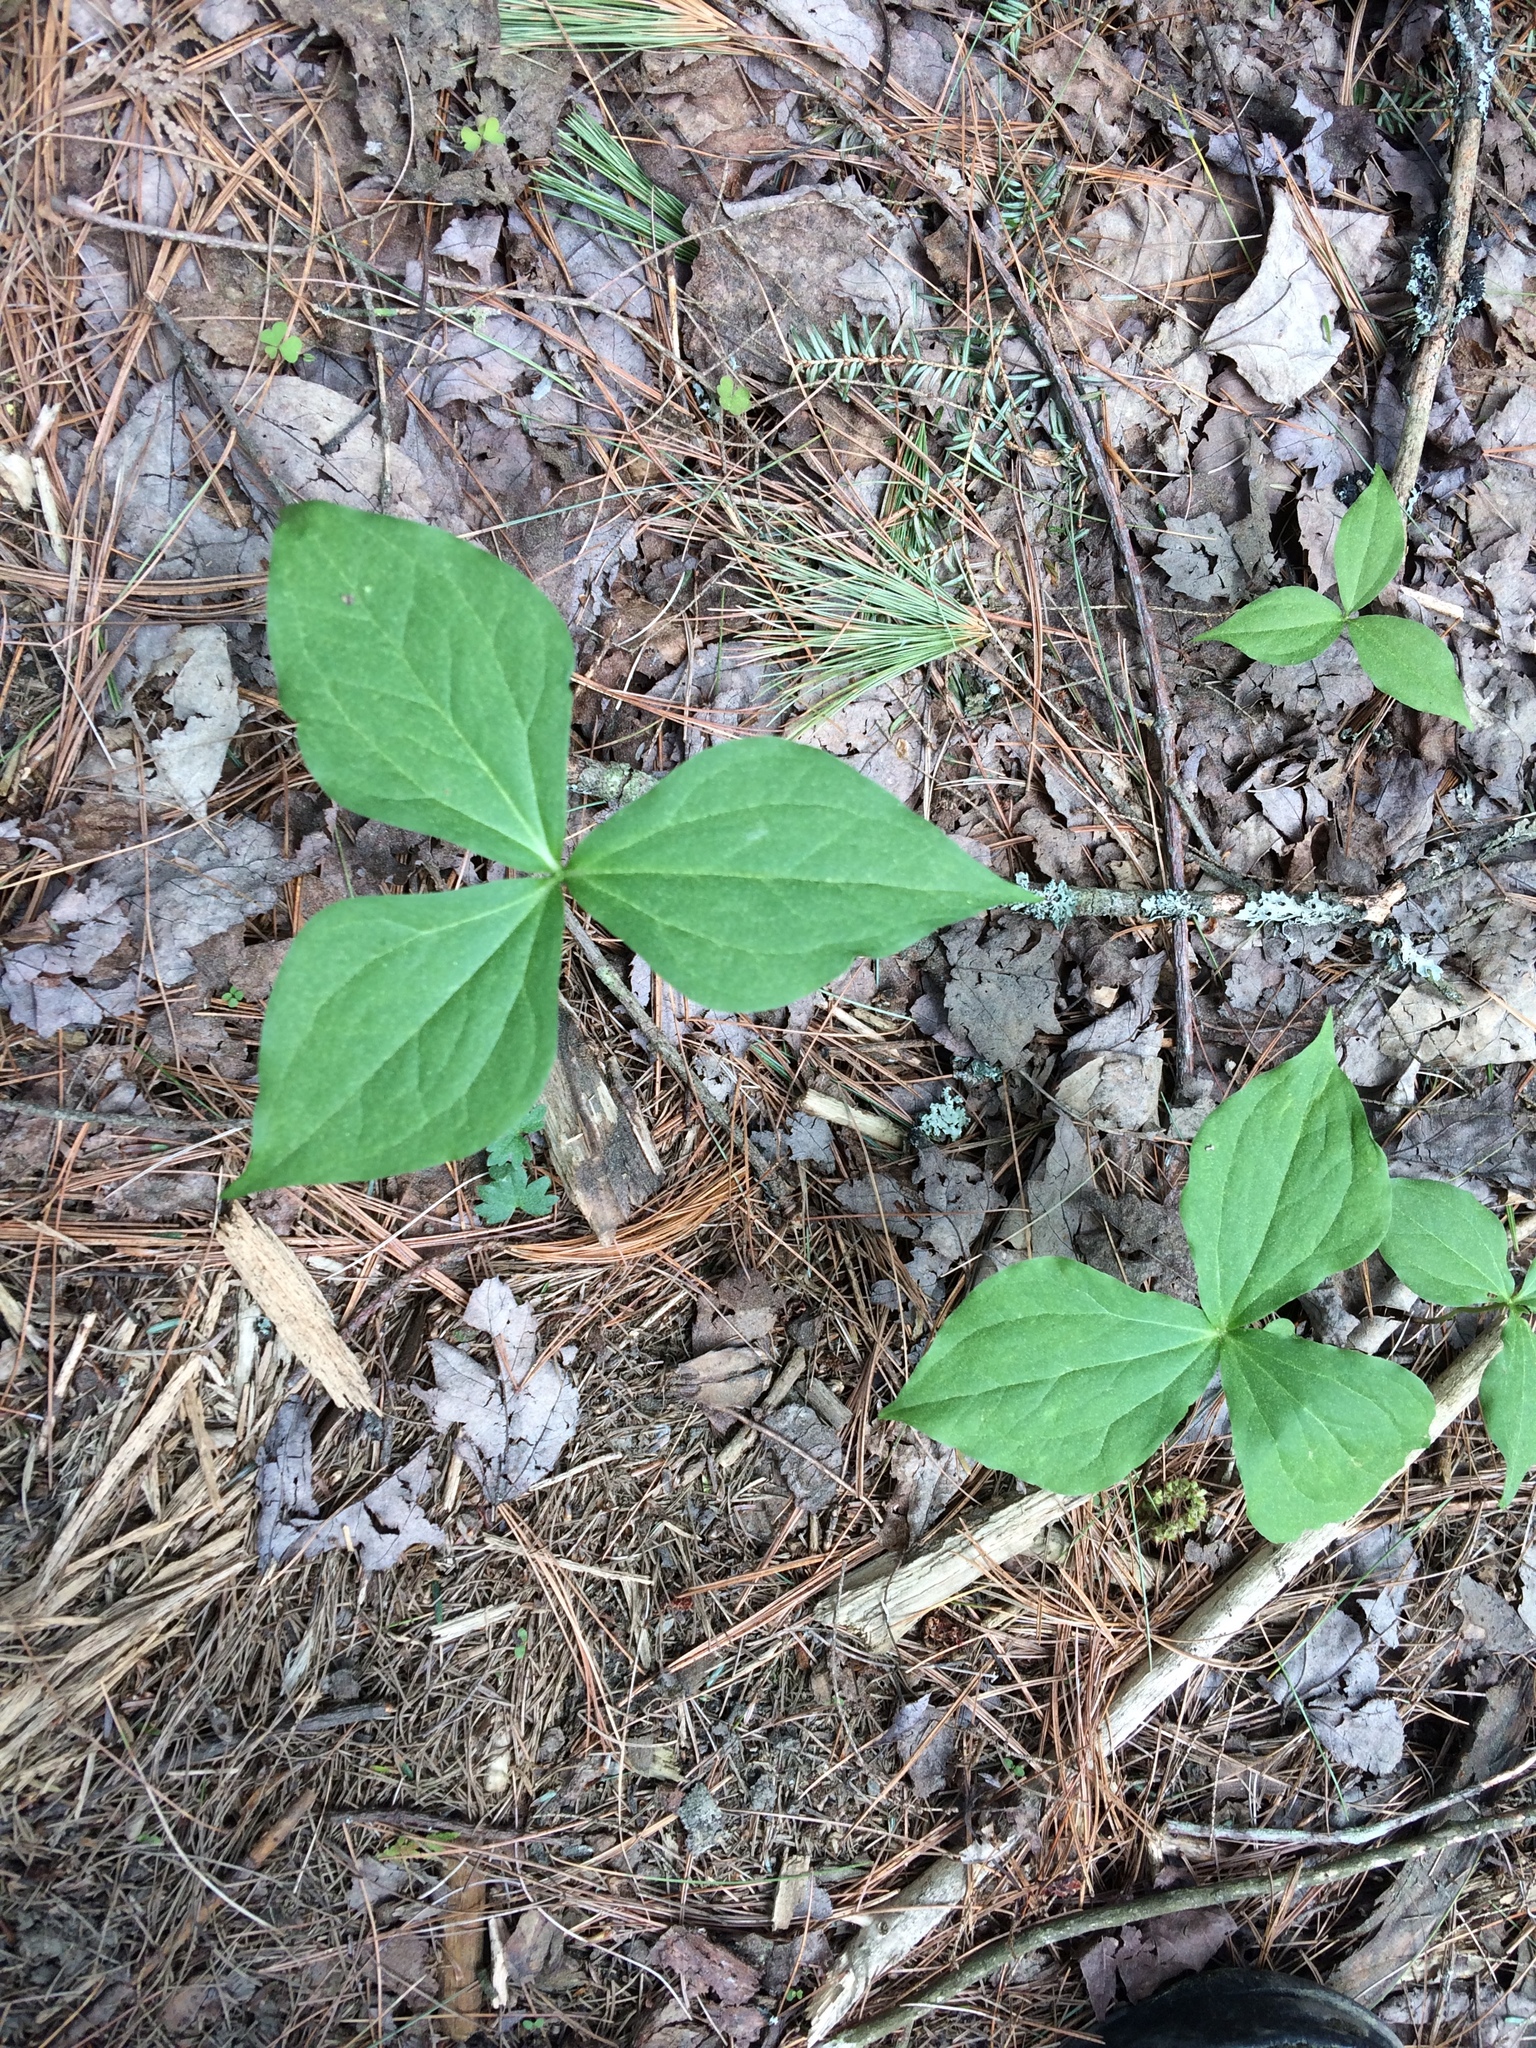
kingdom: Plantae
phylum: Tracheophyta
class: Liliopsida
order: Liliales
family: Melanthiaceae
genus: Trillium
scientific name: Trillium erectum
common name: Purple trillium
